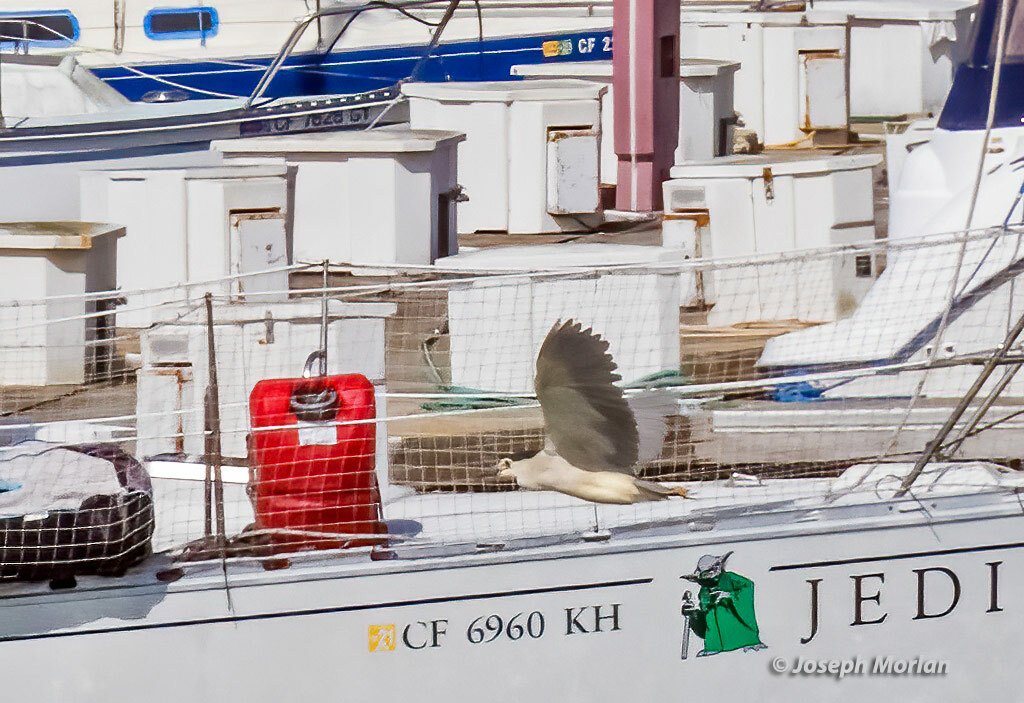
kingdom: Animalia
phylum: Chordata
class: Aves
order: Pelecaniformes
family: Ardeidae
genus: Nycticorax
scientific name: Nycticorax nycticorax
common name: Black-crowned night heron
